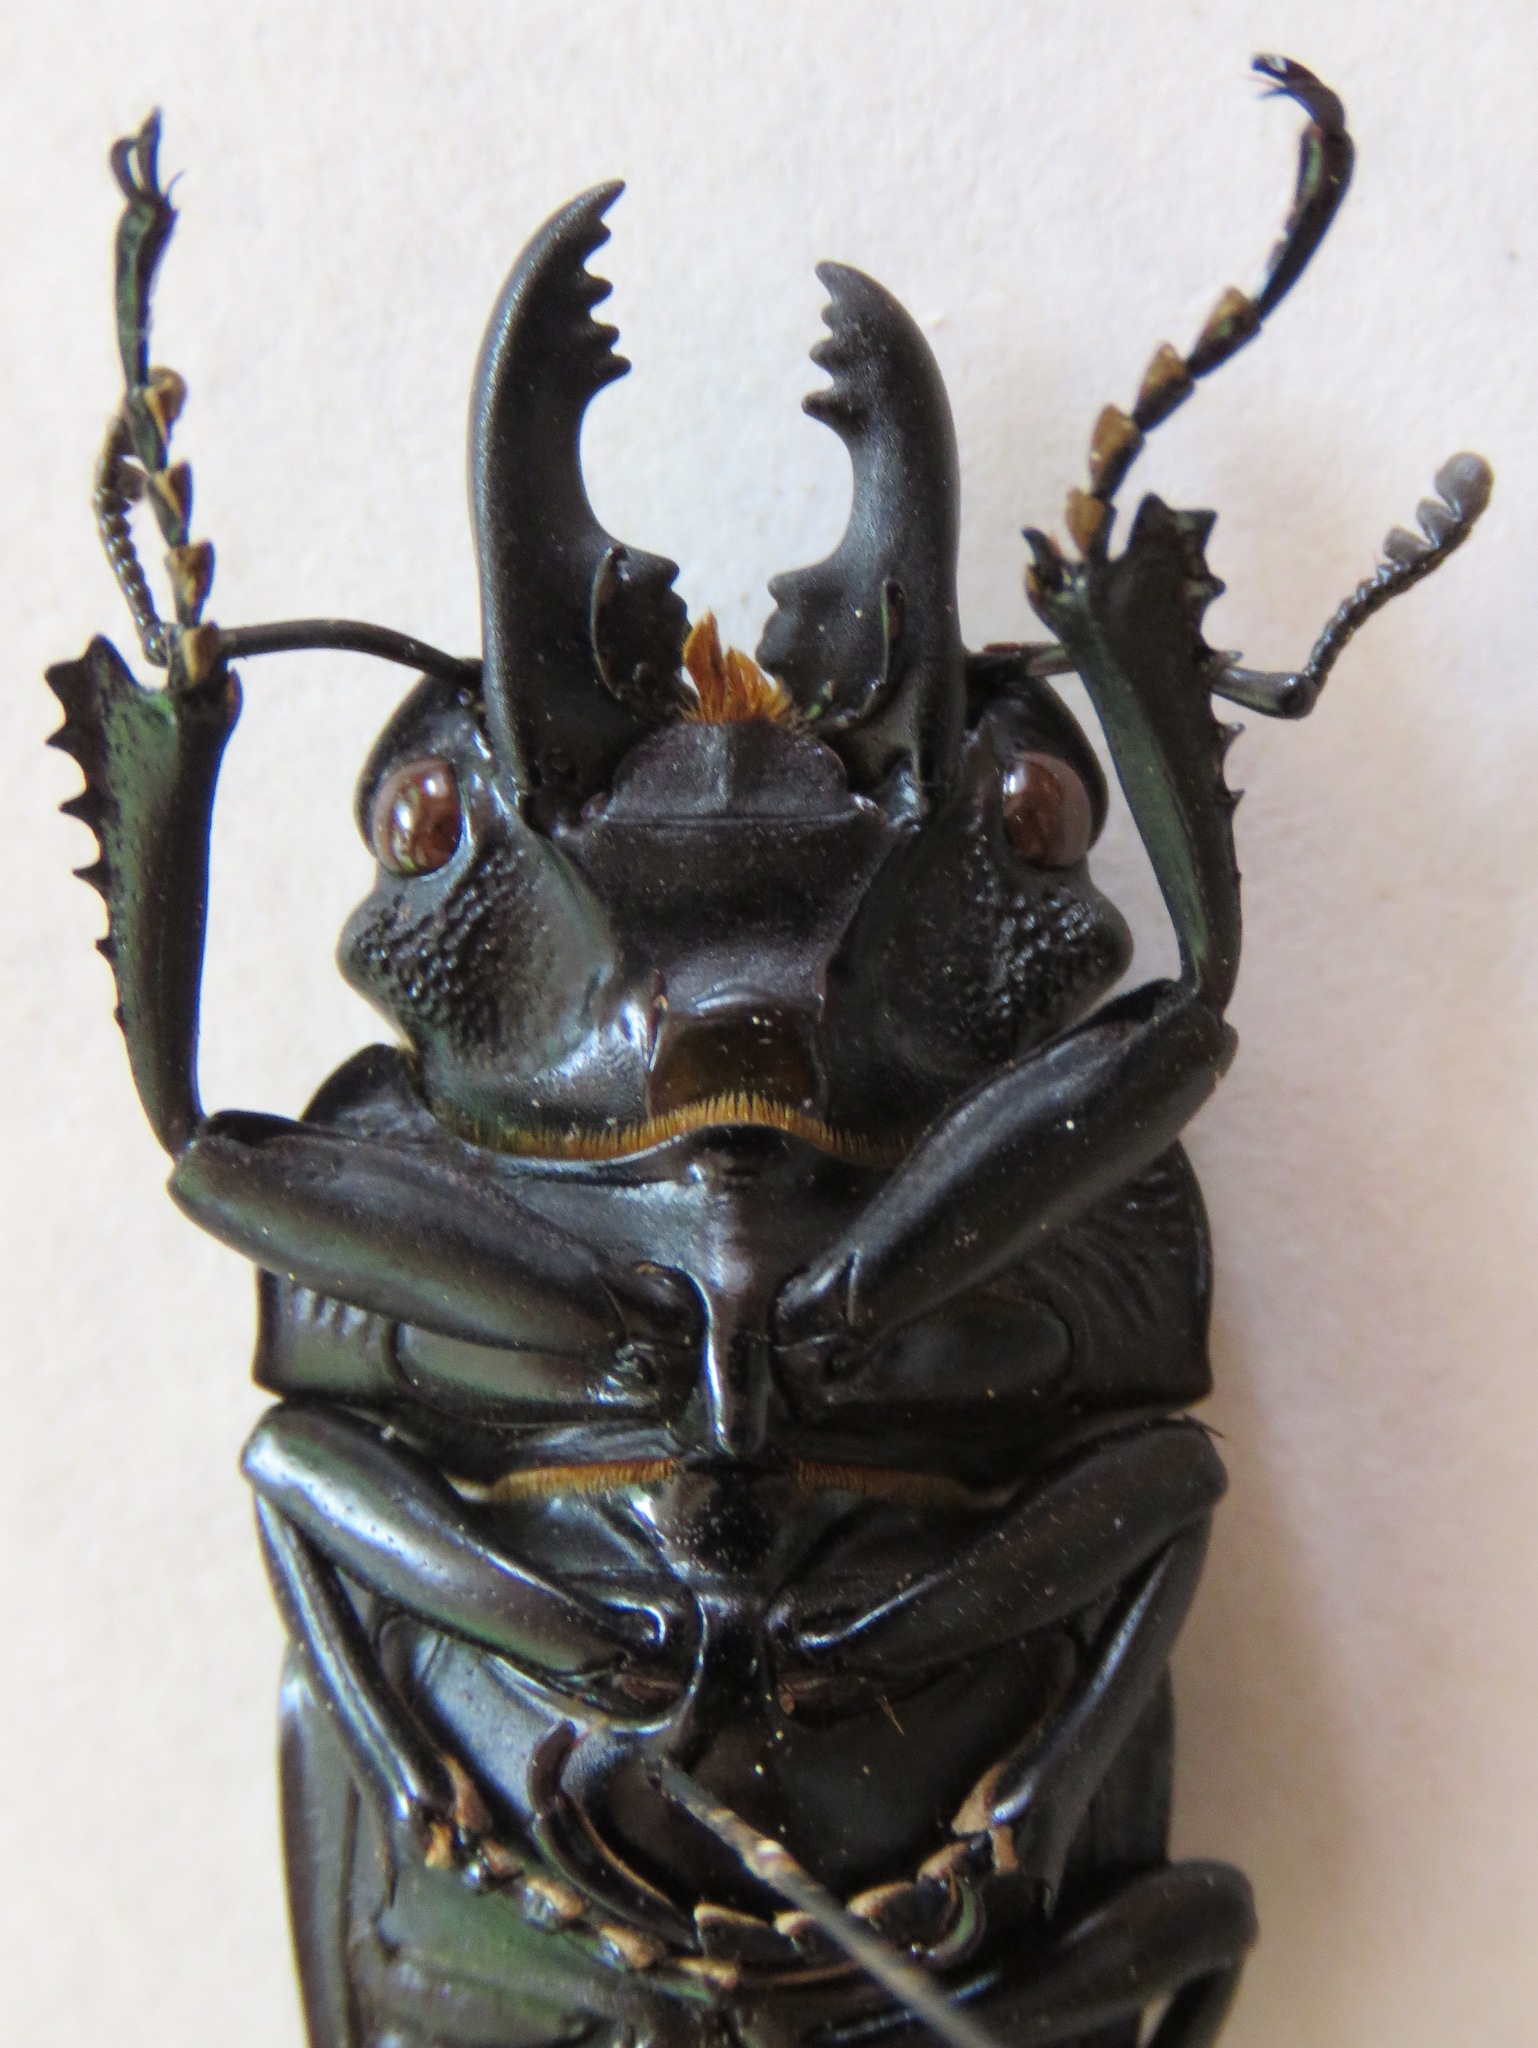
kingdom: Animalia
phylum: Arthropoda
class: Insecta
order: Coleoptera
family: Lucanidae
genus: Odontolabis
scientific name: Odontolabis platynota
